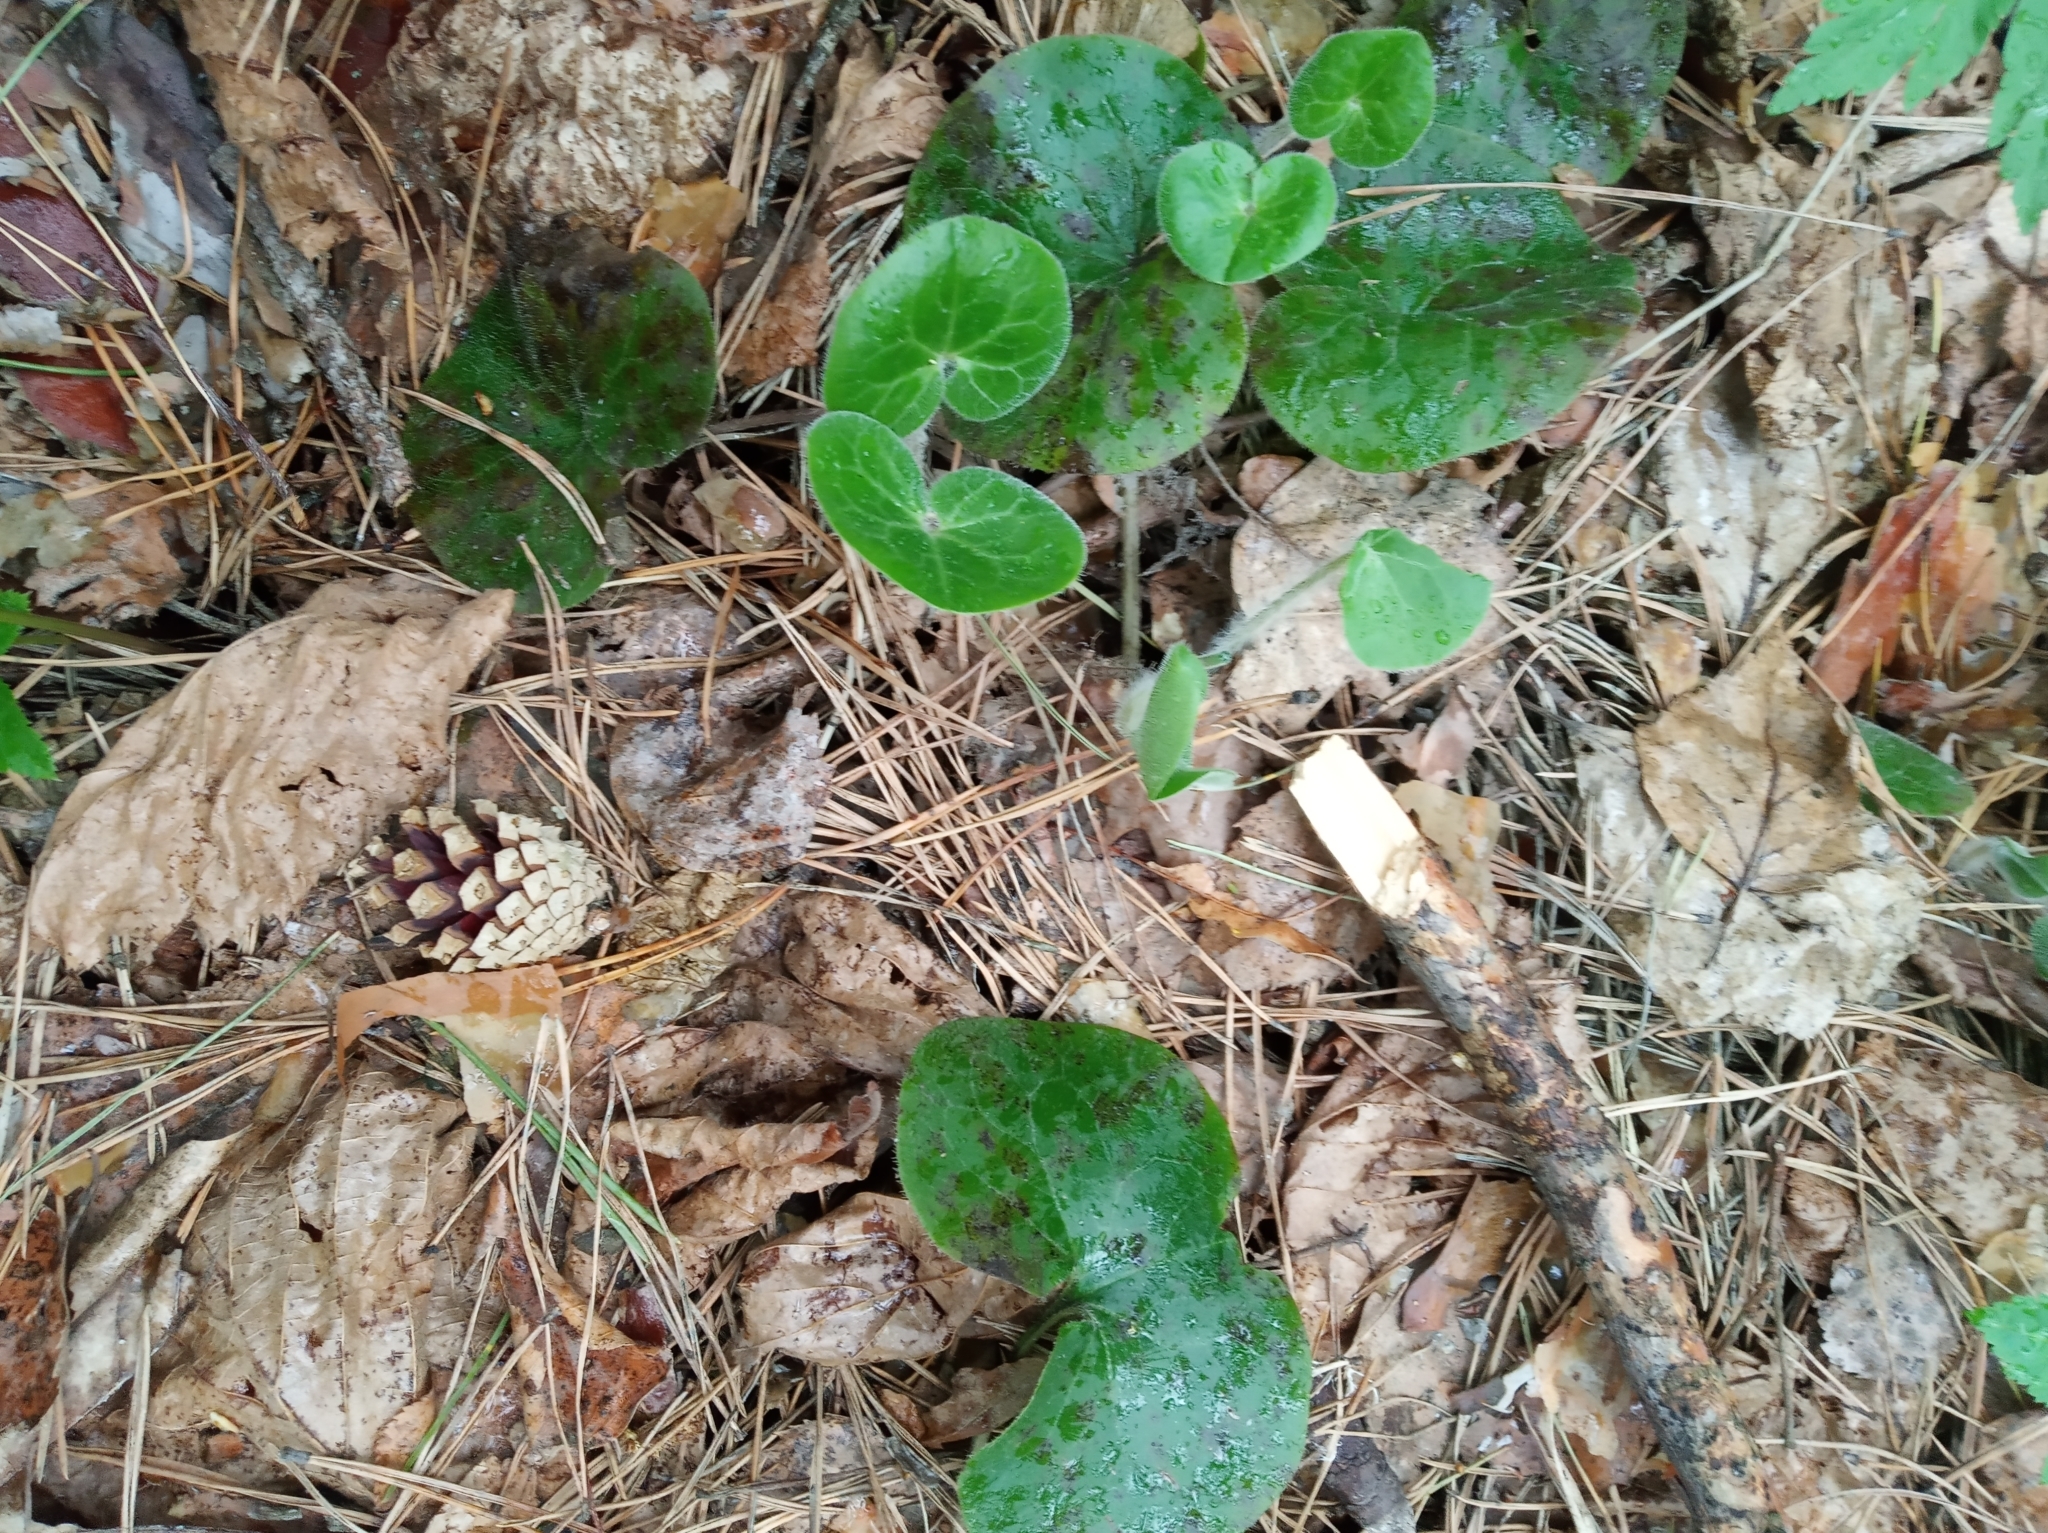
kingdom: Plantae
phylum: Tracheophyta
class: Magnoliopsida
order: Piperales
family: Aristolochiaceae
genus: Asarum
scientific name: Asarum europaeum
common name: Asarabacca
